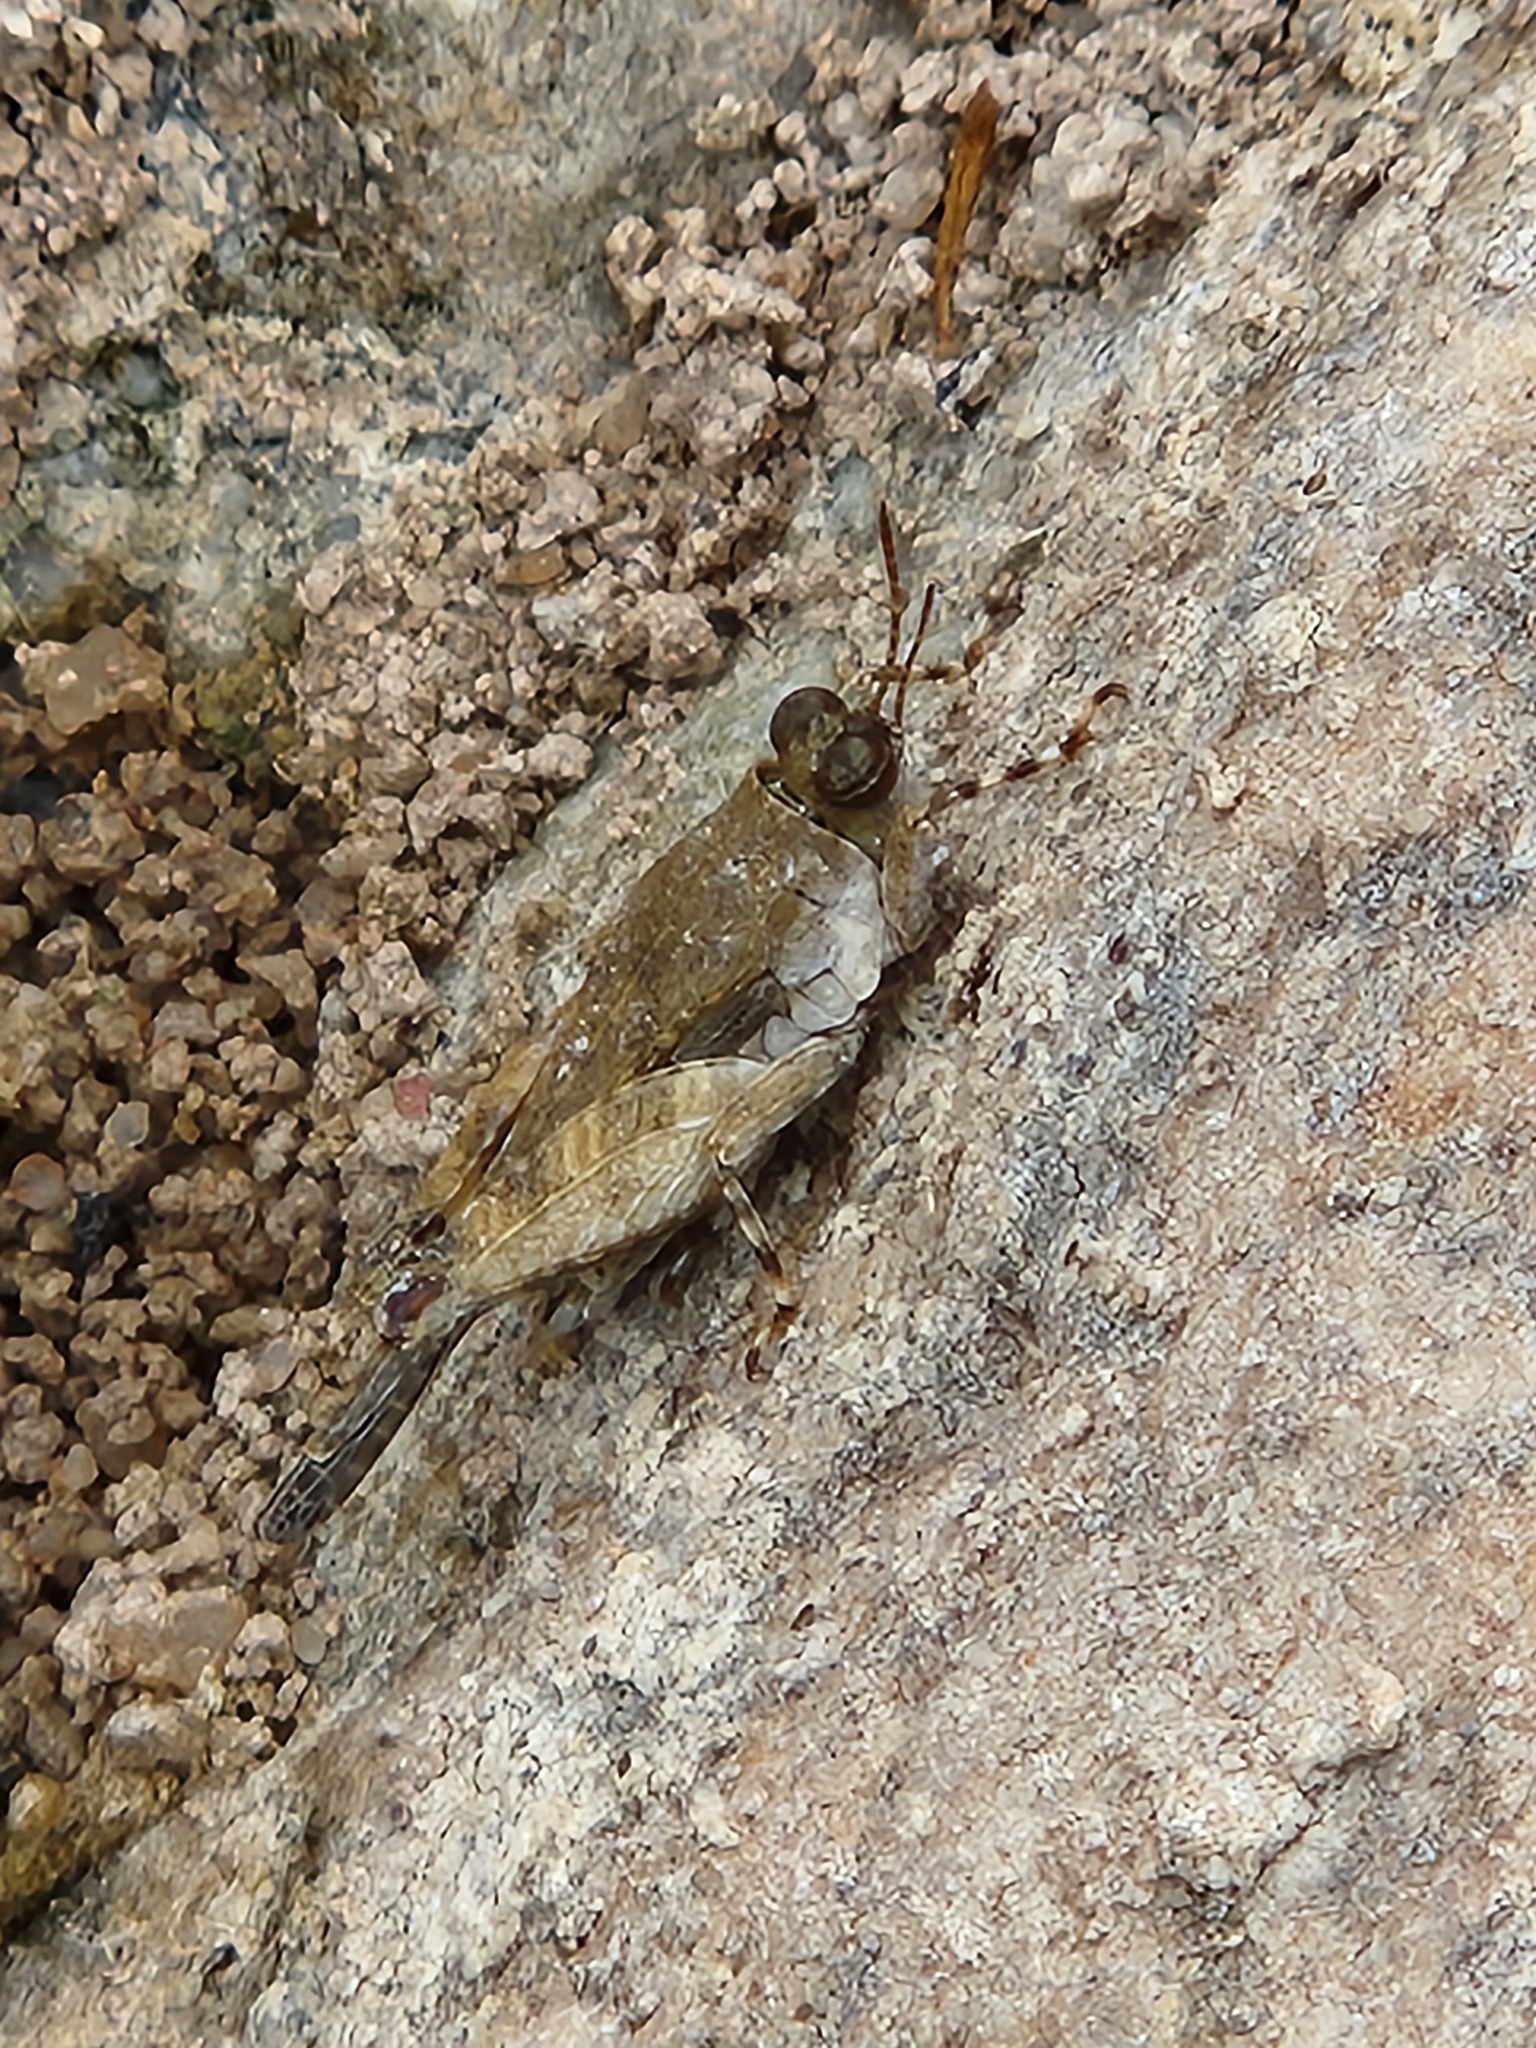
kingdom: Animalia
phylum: Arthropoda
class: Insecta
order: Orthoptera
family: Tetrigidae
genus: Paratettix
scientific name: Paratettix mexicanus
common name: Mexican pygmy grasshopper
